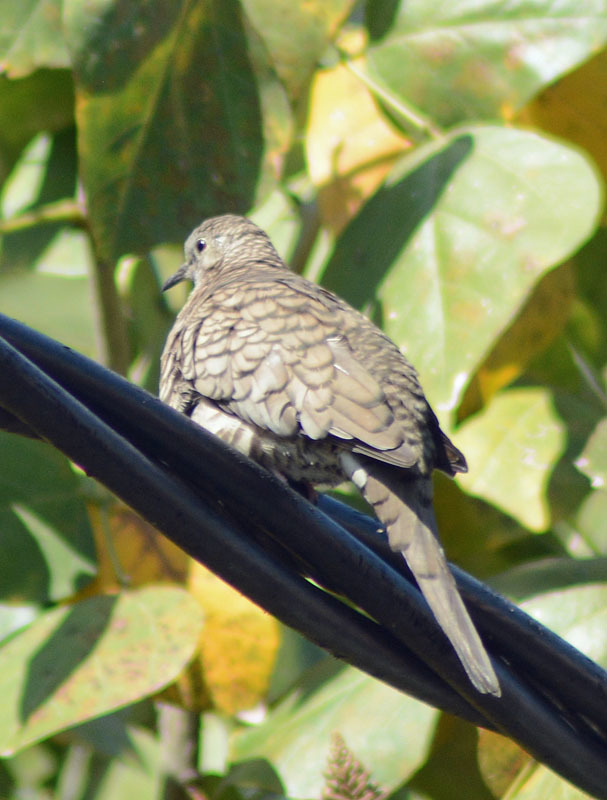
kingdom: Animalia
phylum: Chordata
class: Aves
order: Columbiformes
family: Columbidae
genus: Columbina
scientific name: Columbina inca
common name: Inca dove
